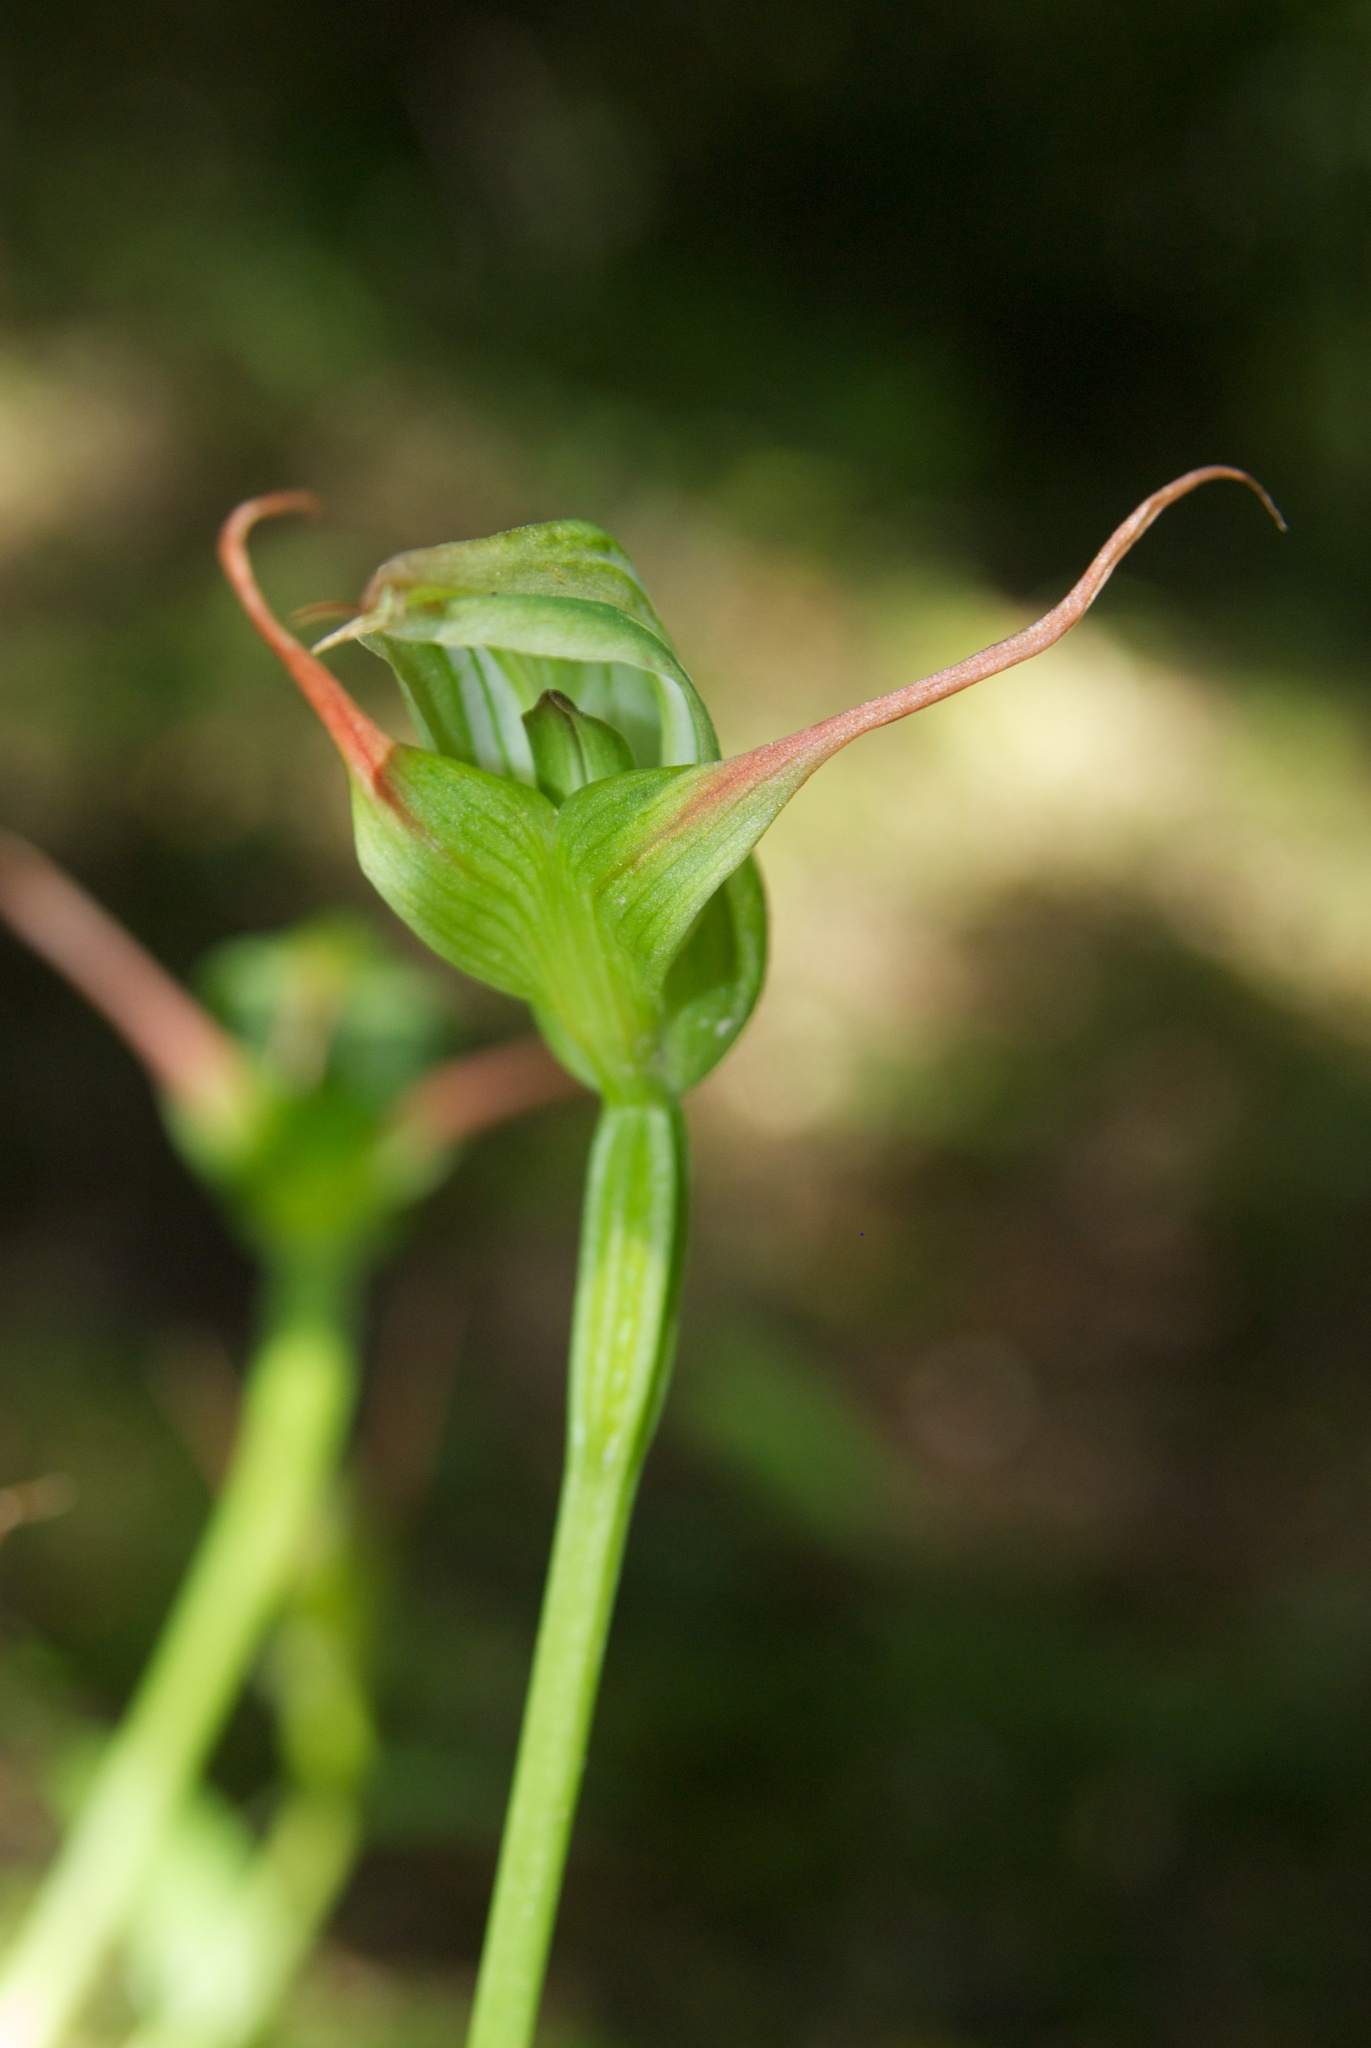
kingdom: Plantae
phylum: Tracheophyta
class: Liliopsida
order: Asparagales
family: Orchidaceae
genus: Pterostylis
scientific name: Pterostylis montana
